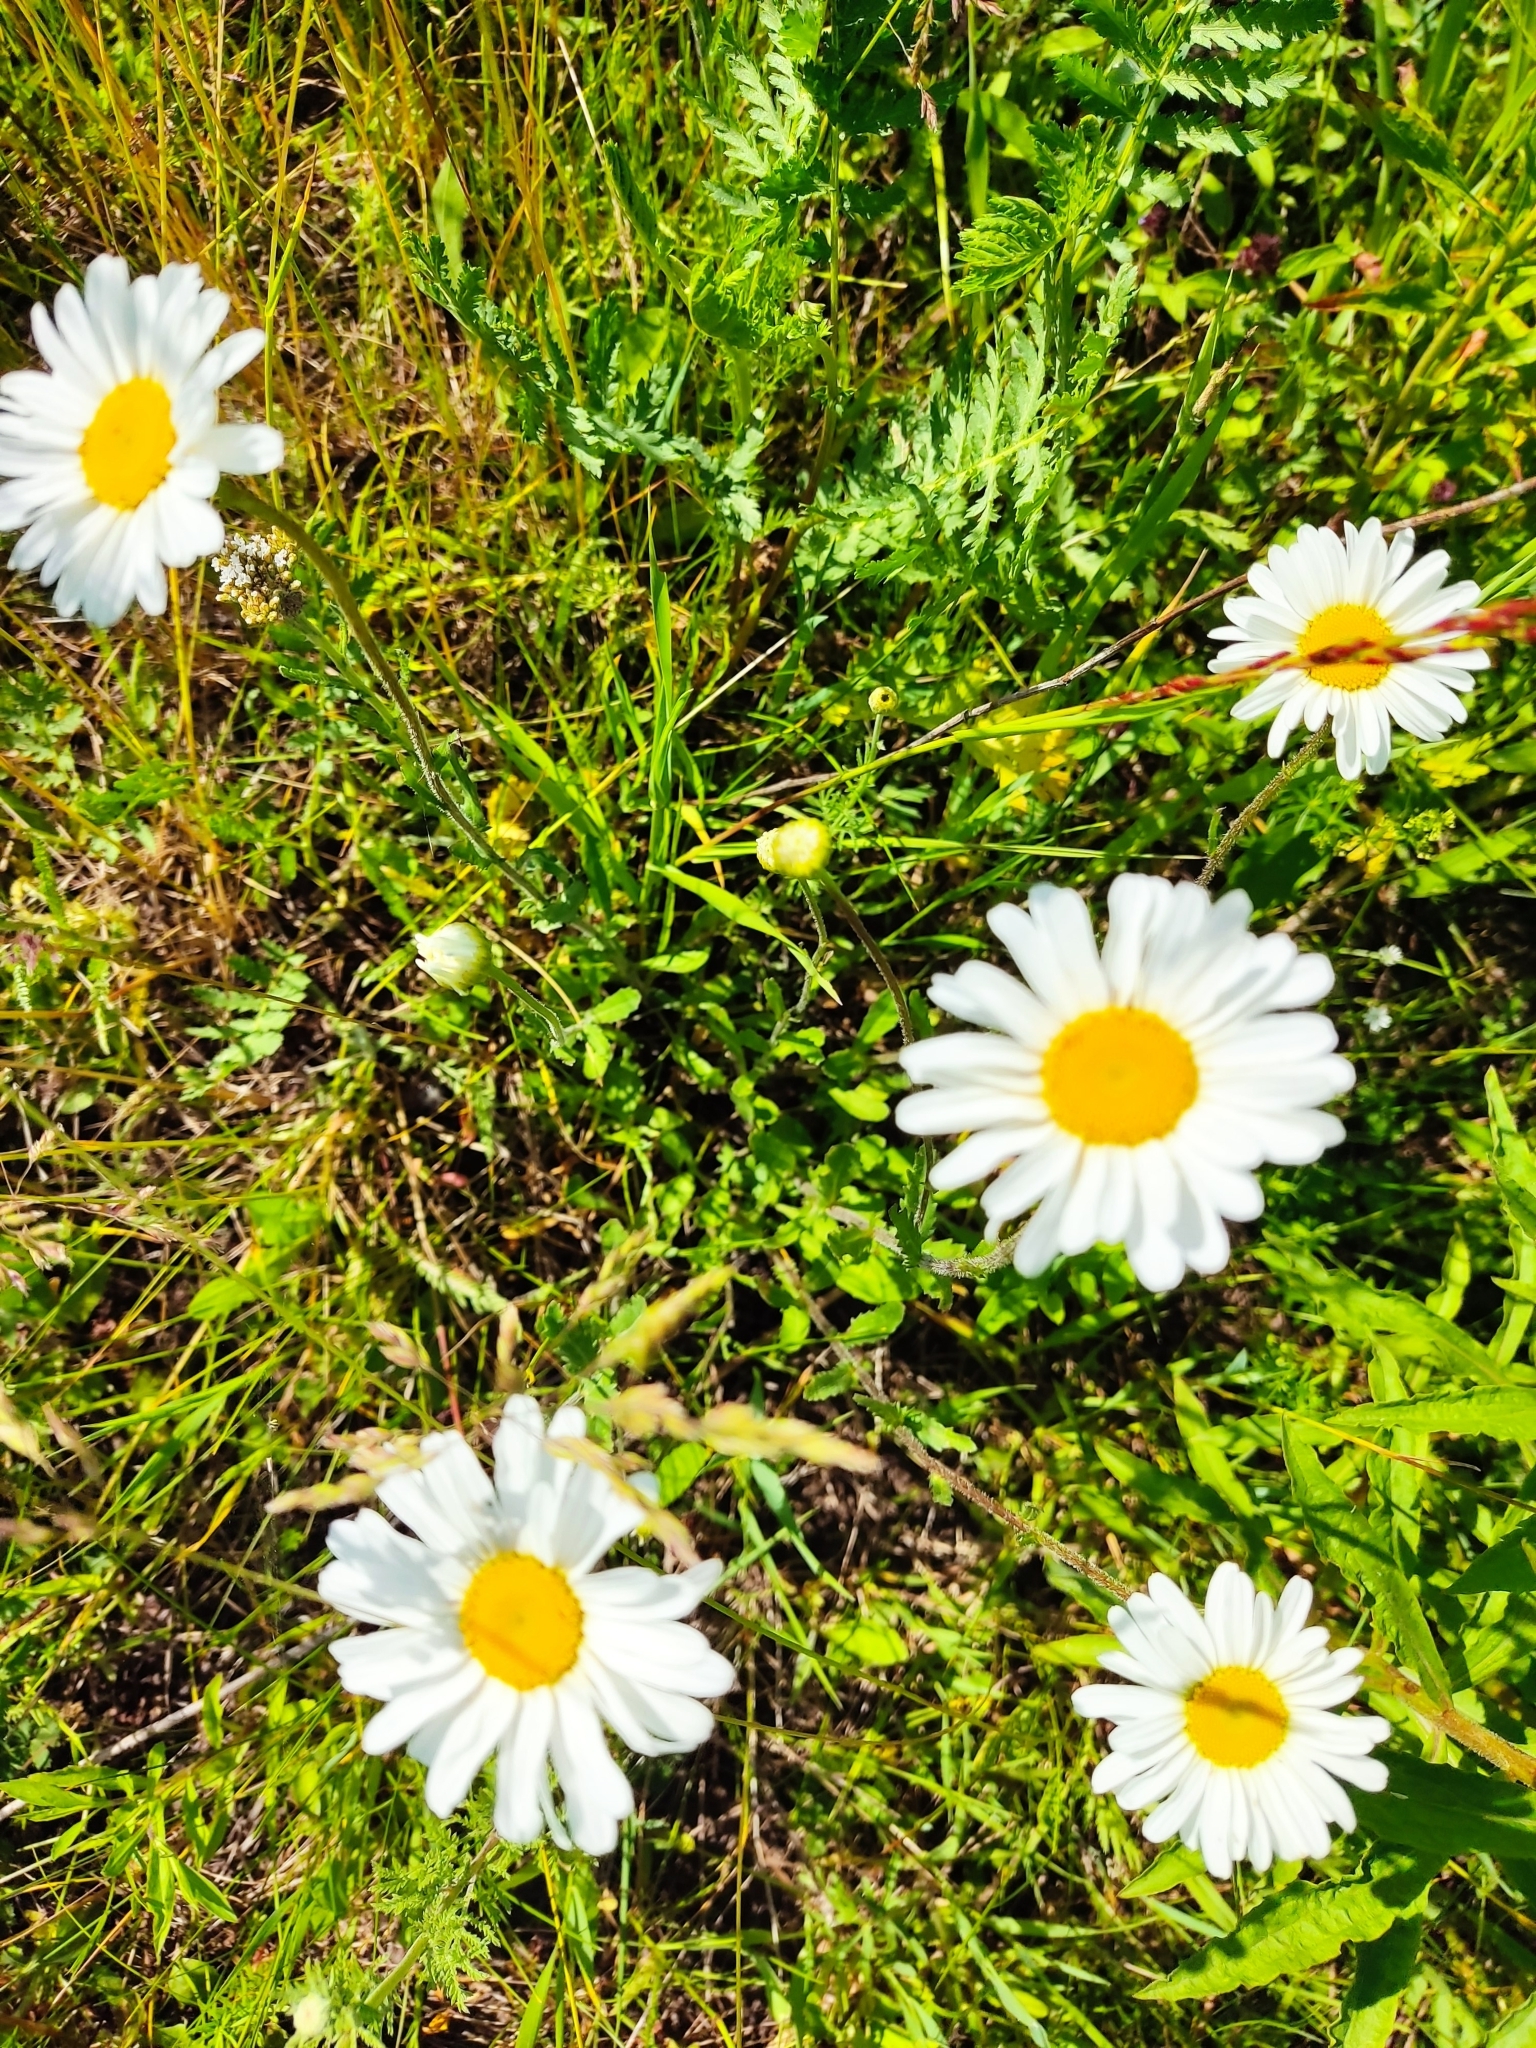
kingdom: Plantae
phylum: Tracheophyta
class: Magnoliopsida
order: Asterales
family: Asteraceae
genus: Leucanthemum
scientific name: Leucanthemum vulgare
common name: Oxeye daisy
